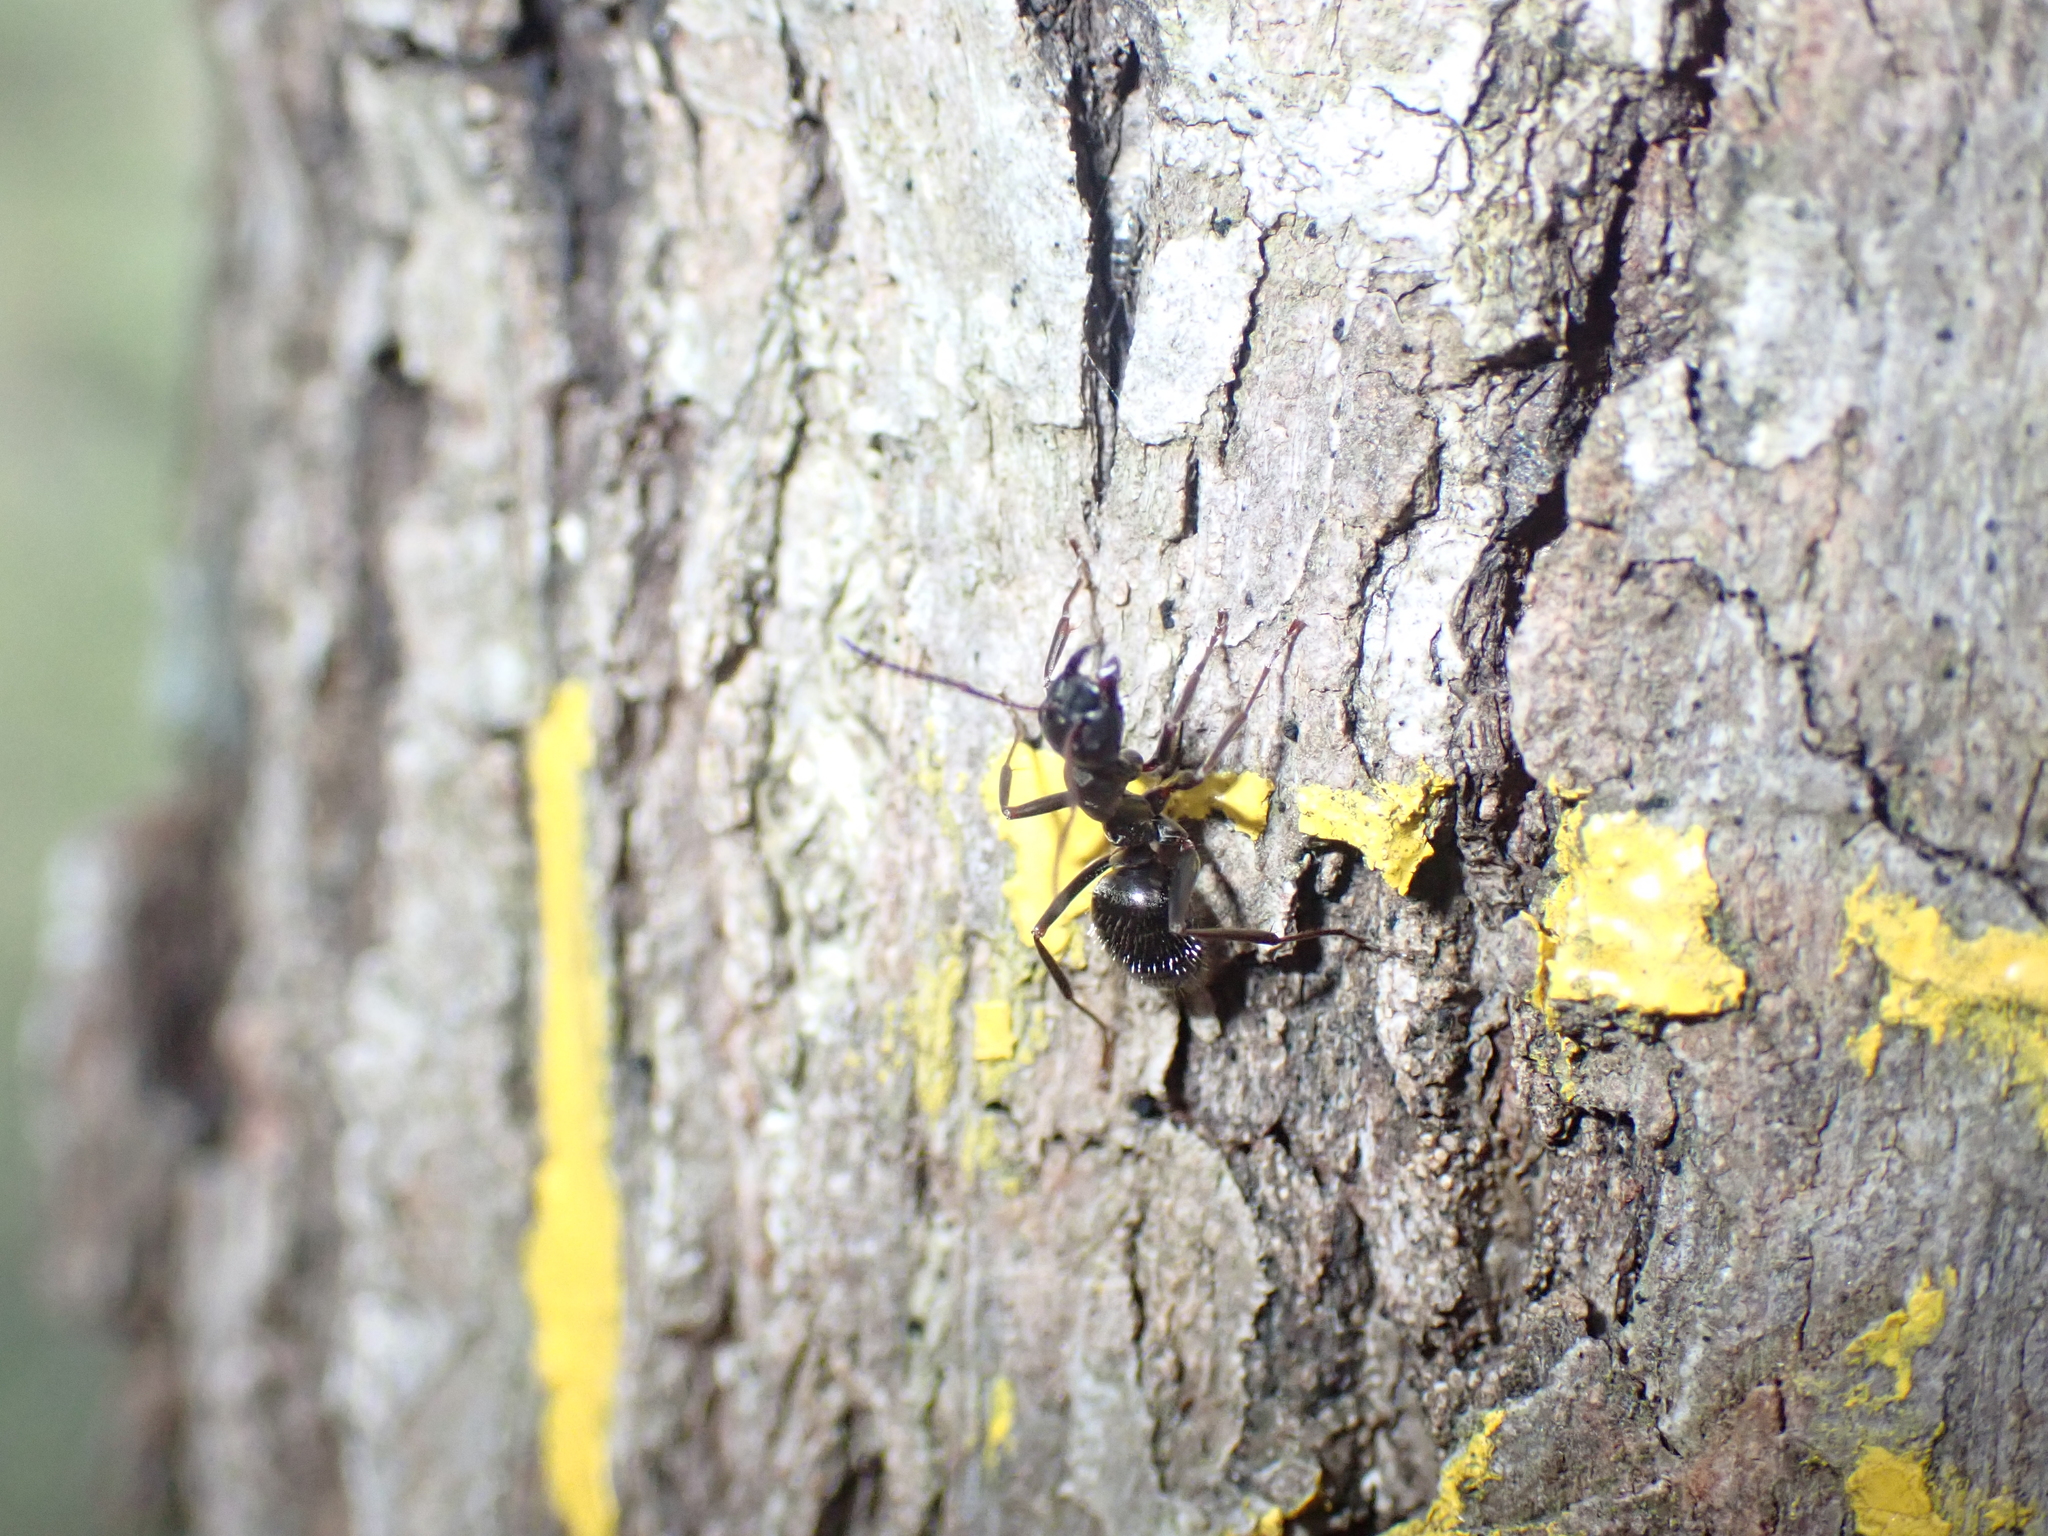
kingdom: Animalia
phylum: Arthropoda
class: Insecta
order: Hymenoptera
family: Formicidae
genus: Formica
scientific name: Formica gagates
